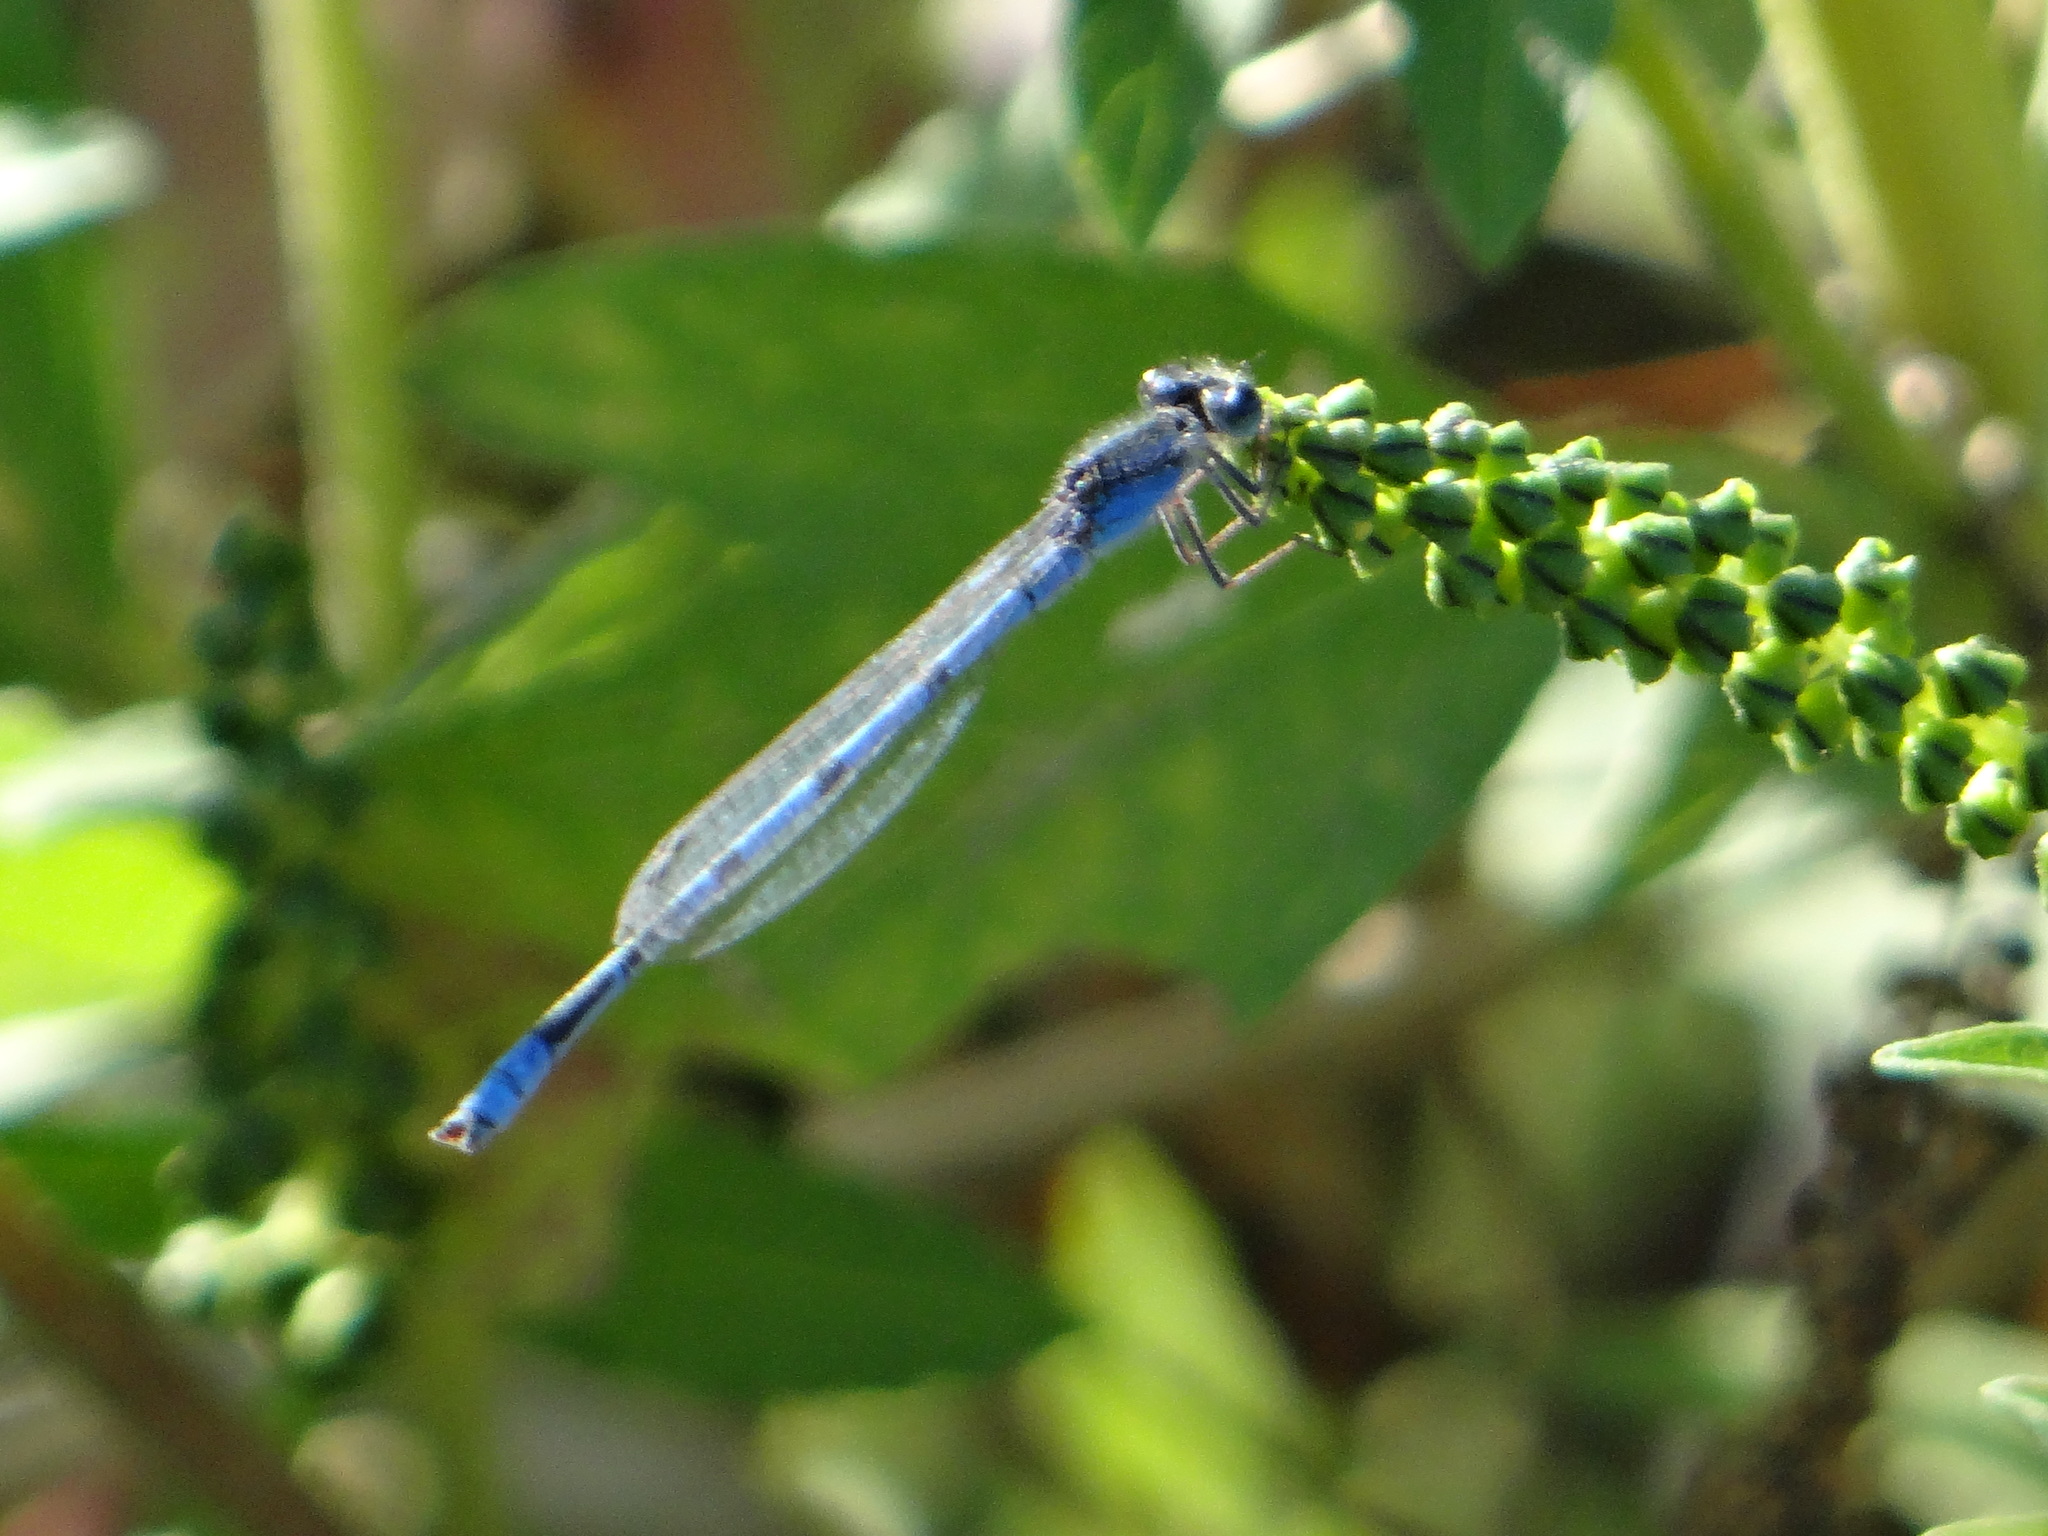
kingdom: Animalia
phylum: Arthropoda
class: Insecta
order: Odonata
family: Coenagrionidae
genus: Enallagma
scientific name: Enallagma civile
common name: Damselfly
